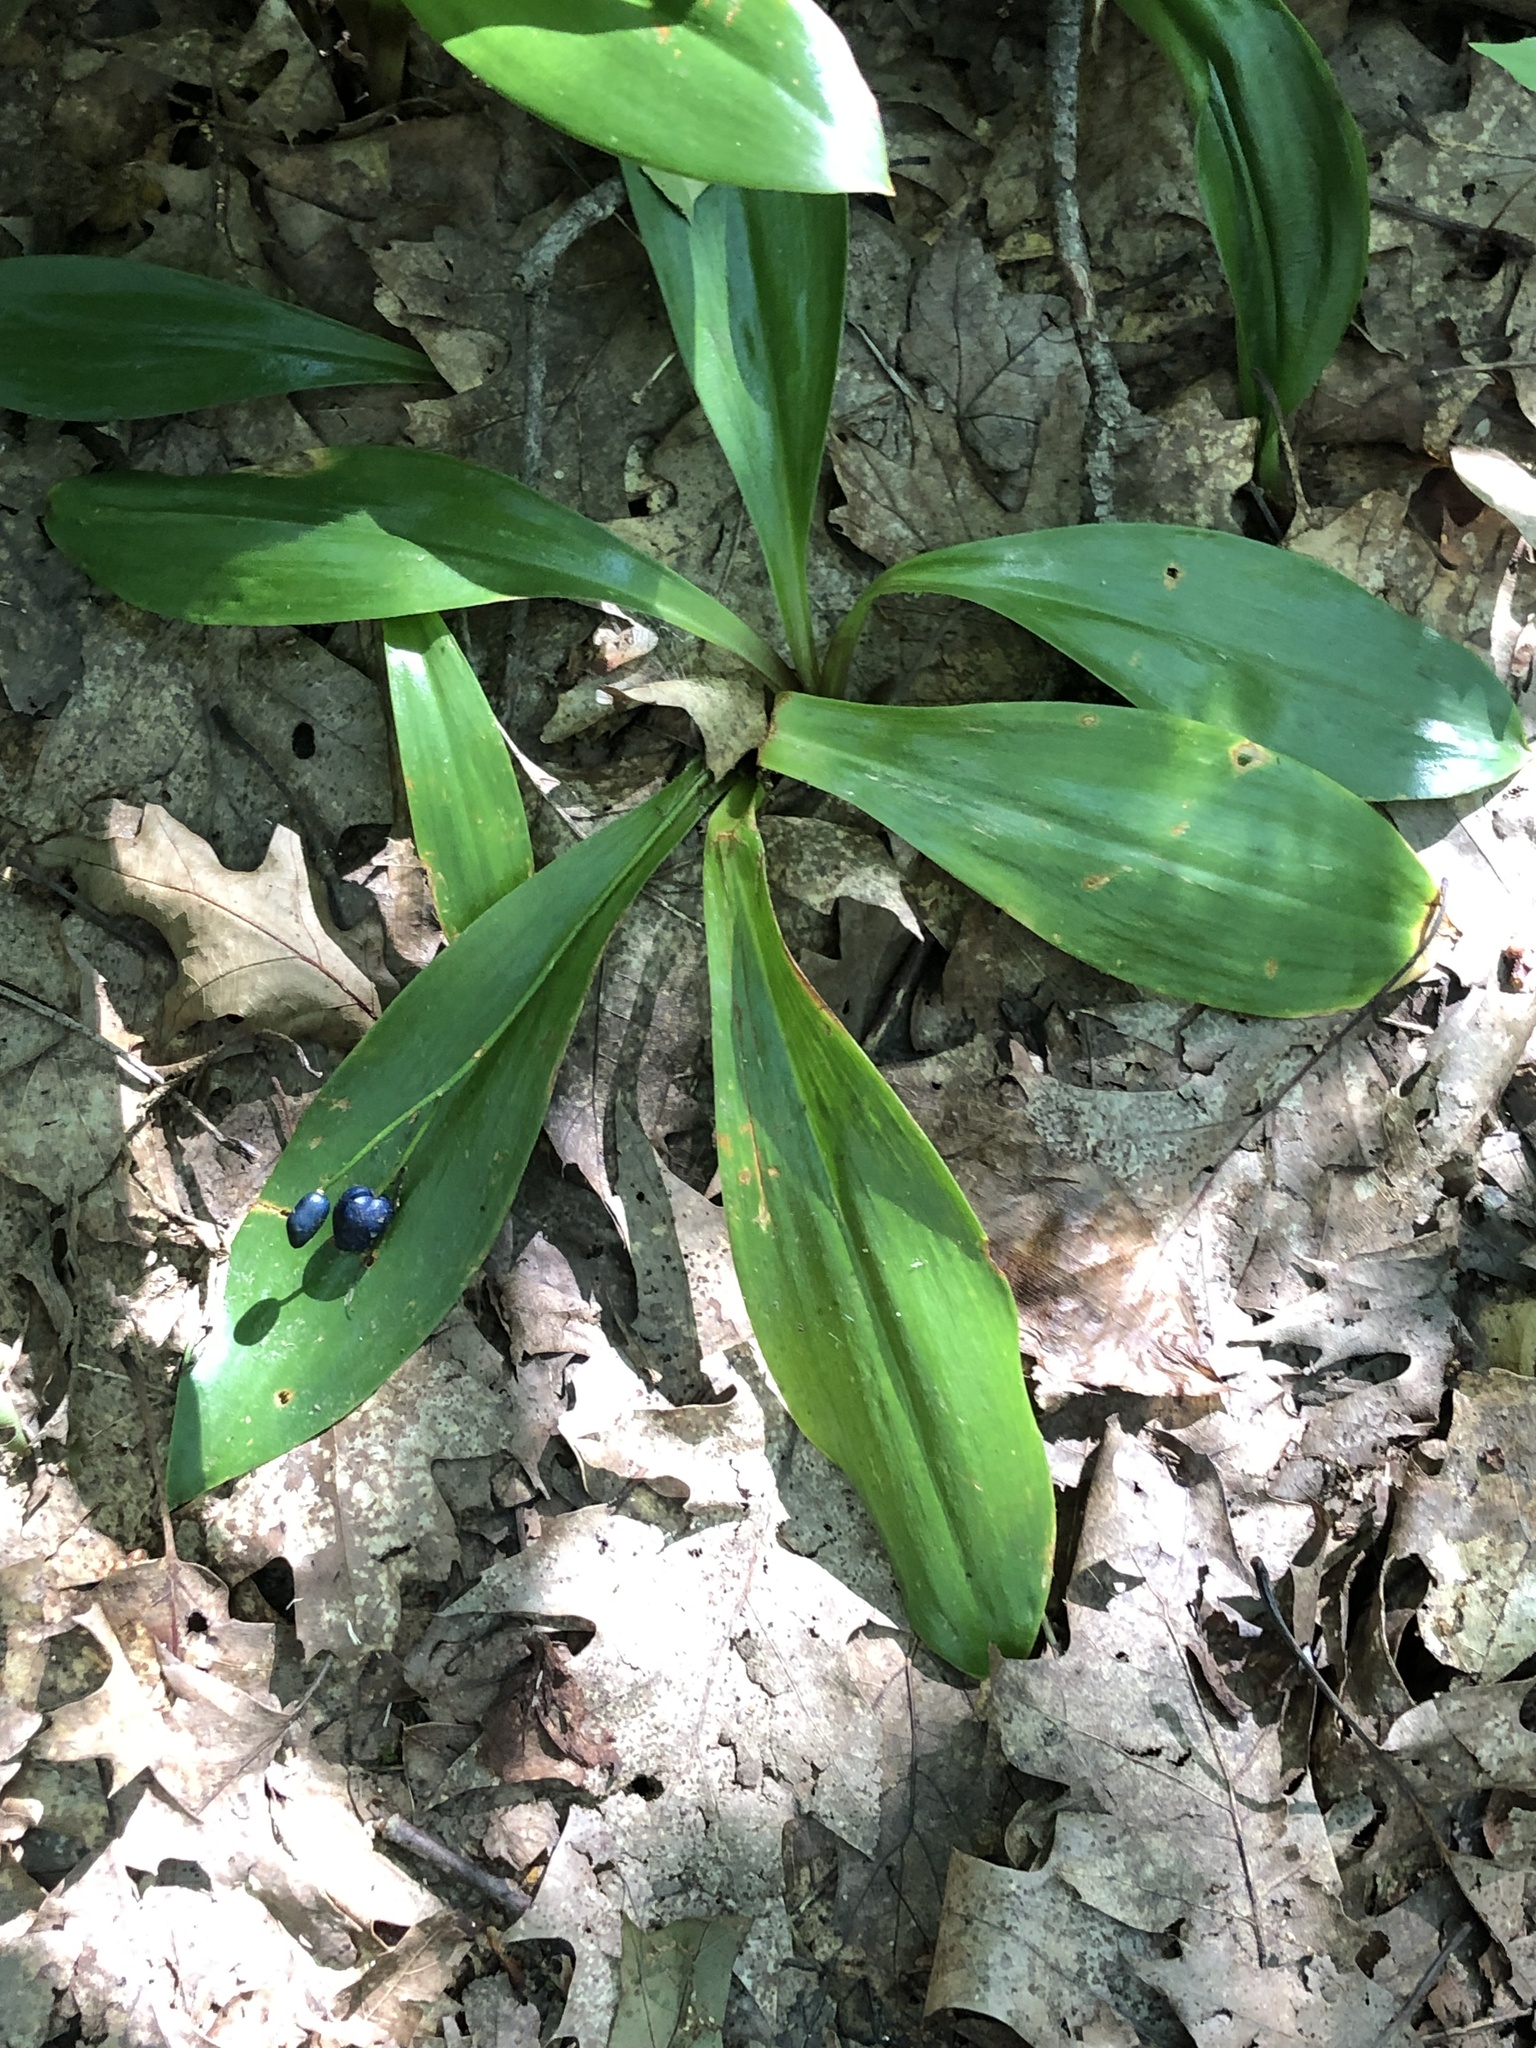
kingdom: Plantae
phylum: Tracheophyta
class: Liliopsida
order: Liliales
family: Liliaceae
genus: Clintonia
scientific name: Clintonia borealis
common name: Yellow clintonia
